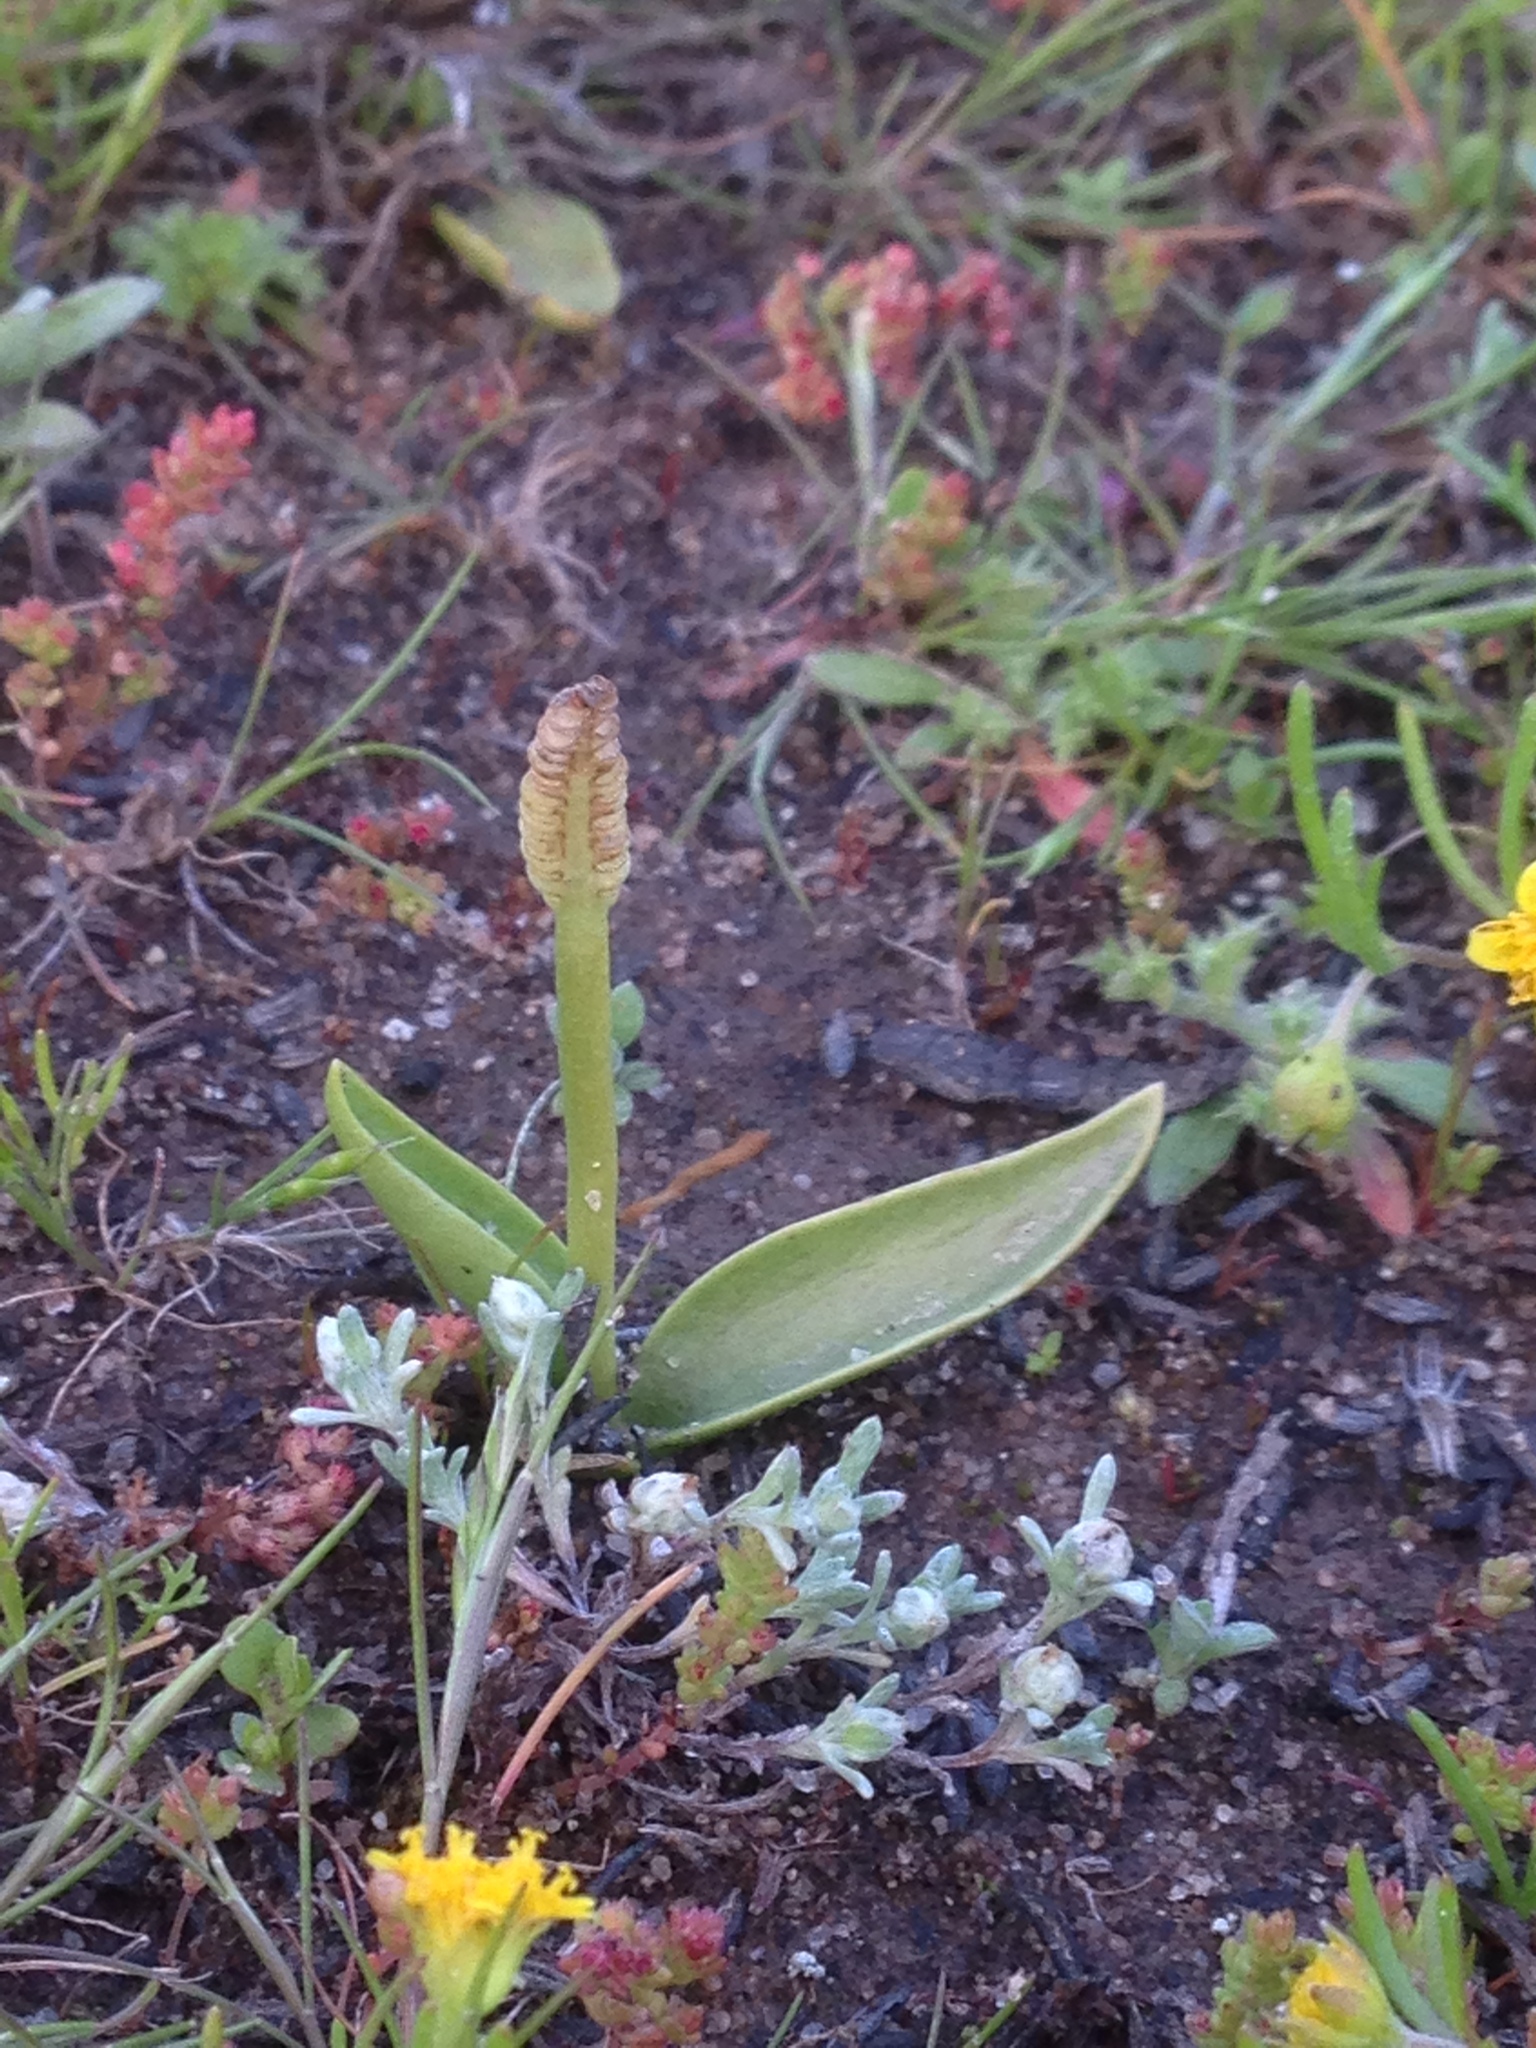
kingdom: Plantae
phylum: Tracheophyta
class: Polypodiopsida
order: Ophioglossales
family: Ophioglossaceae
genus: Ophioglossum
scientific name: Ophioglossum californicum
